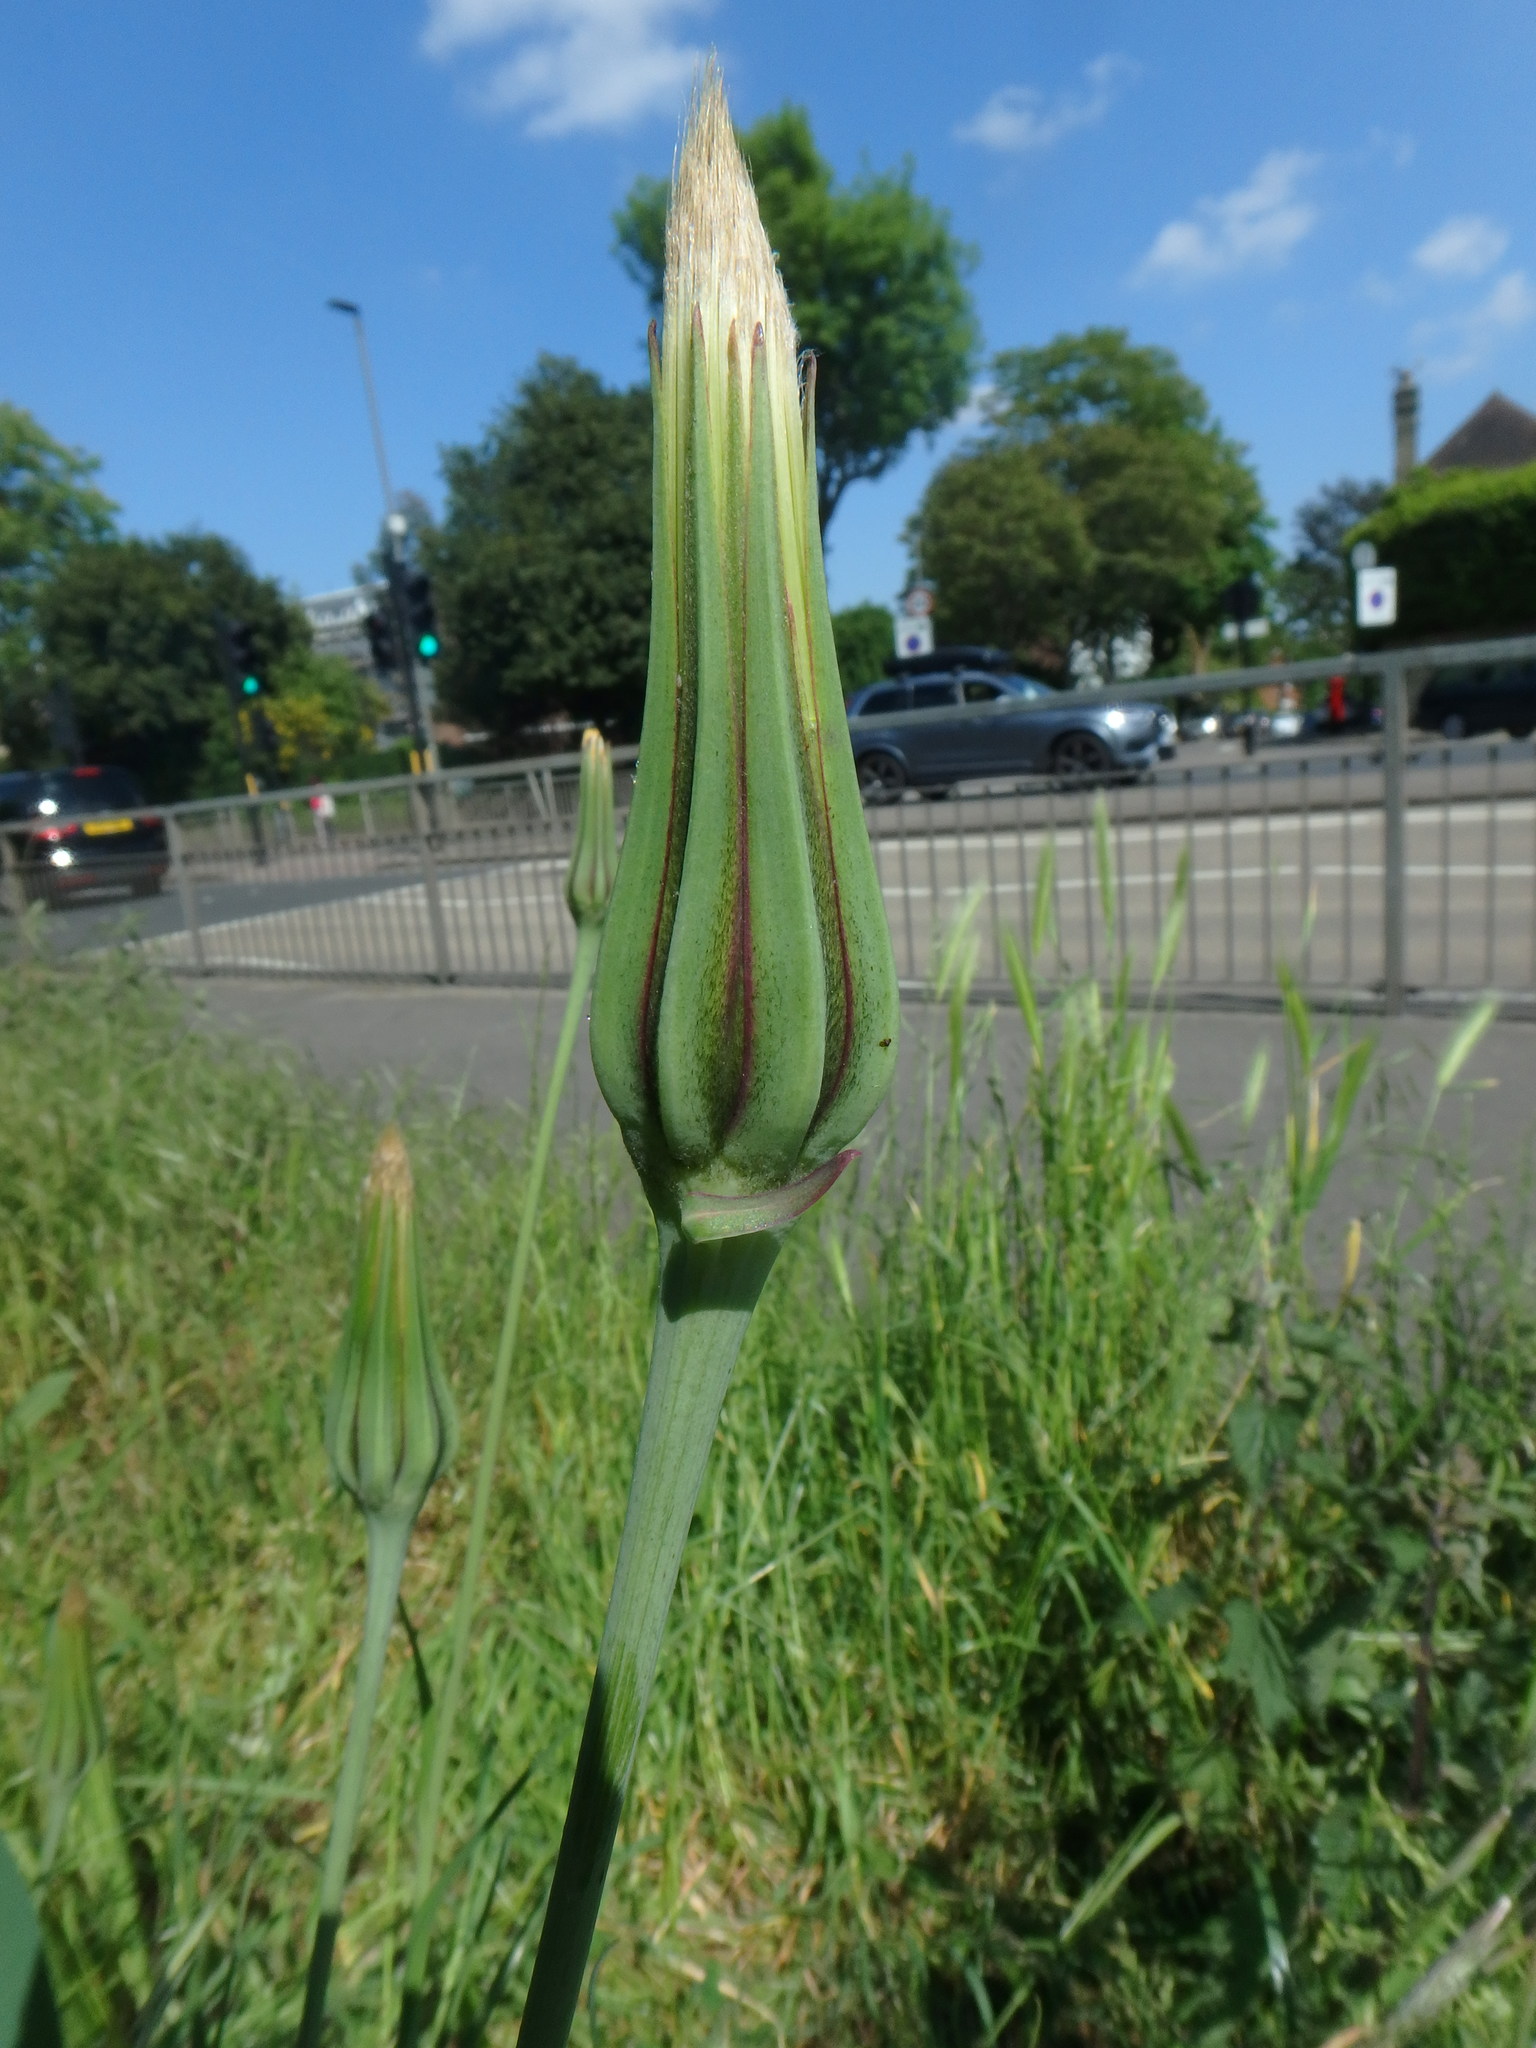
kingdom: Plantae
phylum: Tracheophyta
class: Magnoliopsida
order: Asterales
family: Asteraceae
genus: Tragopogon
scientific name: Tragopogon pratensis
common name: Goat's-beard
